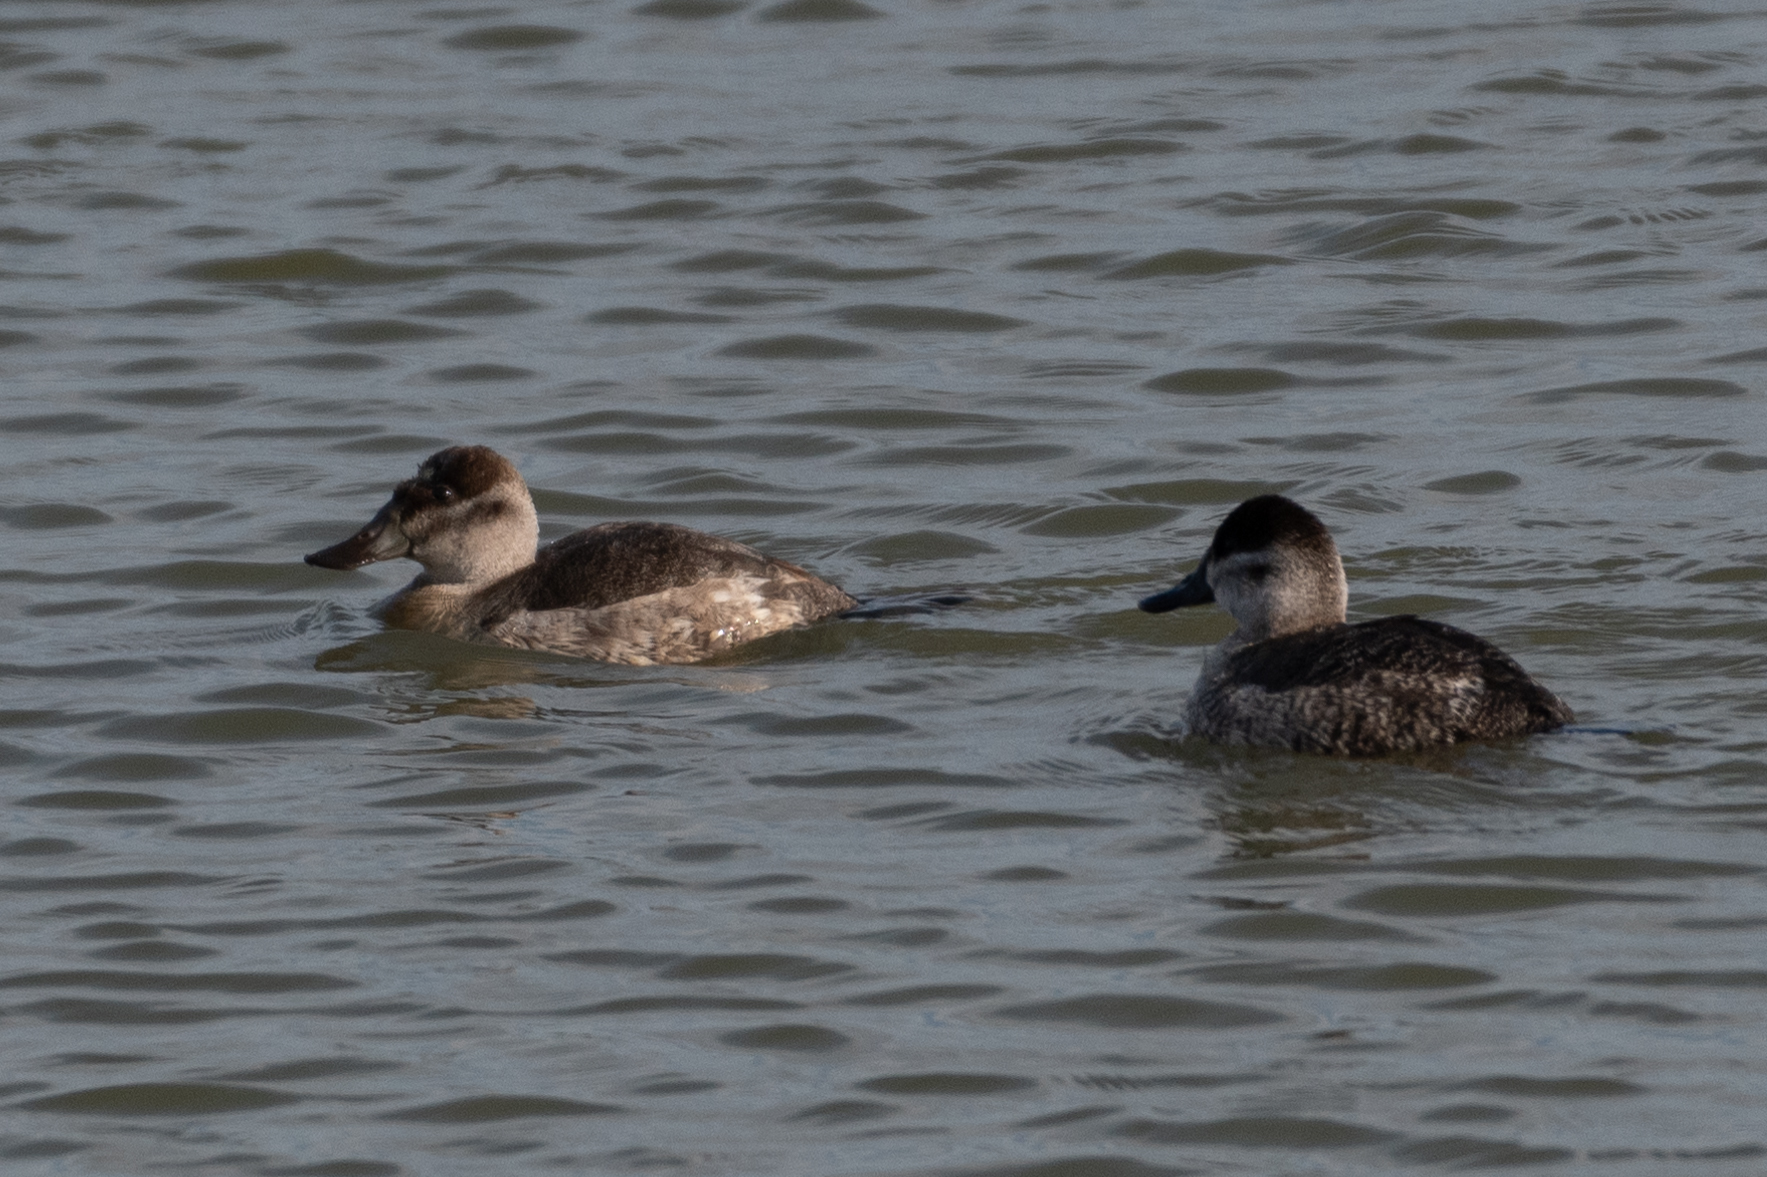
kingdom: Animalia
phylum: Chordata
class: Aves
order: Anseriformes
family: Anatidae
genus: Oxyura
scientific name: Oxyura jamaicensis
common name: Ruddy duck
